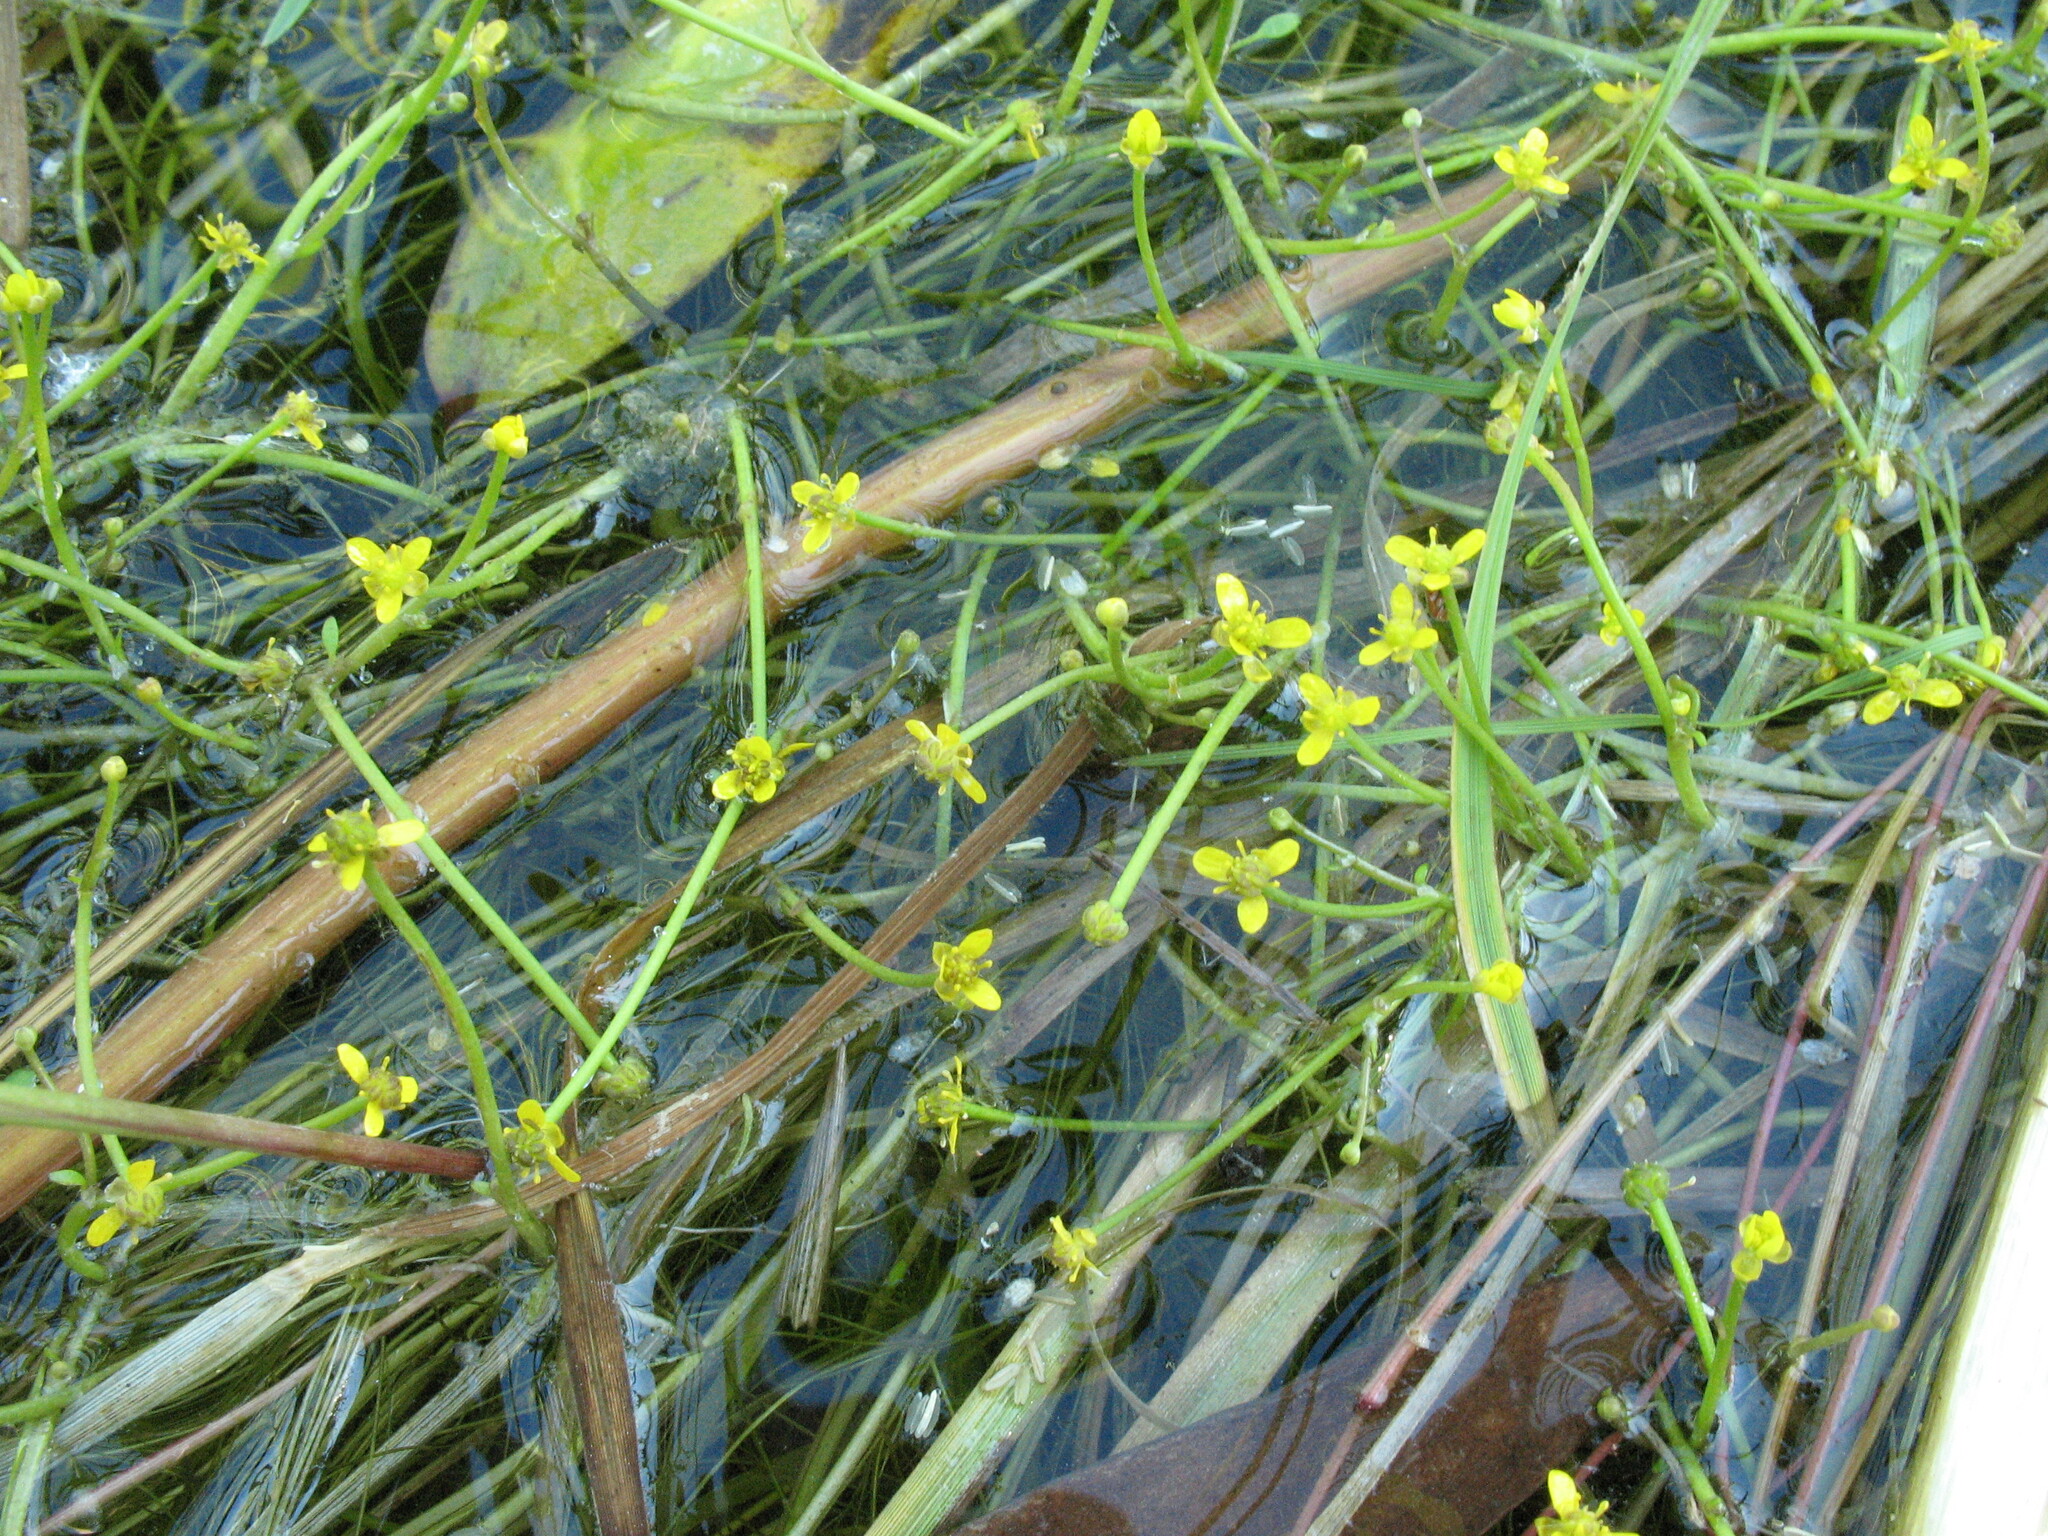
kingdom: Plantae
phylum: Tracheophyta
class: Magnoliopsida
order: Ranunculales
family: Ranunculaceae
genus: Ranunculus
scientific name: Ranunculus polyphyllus
